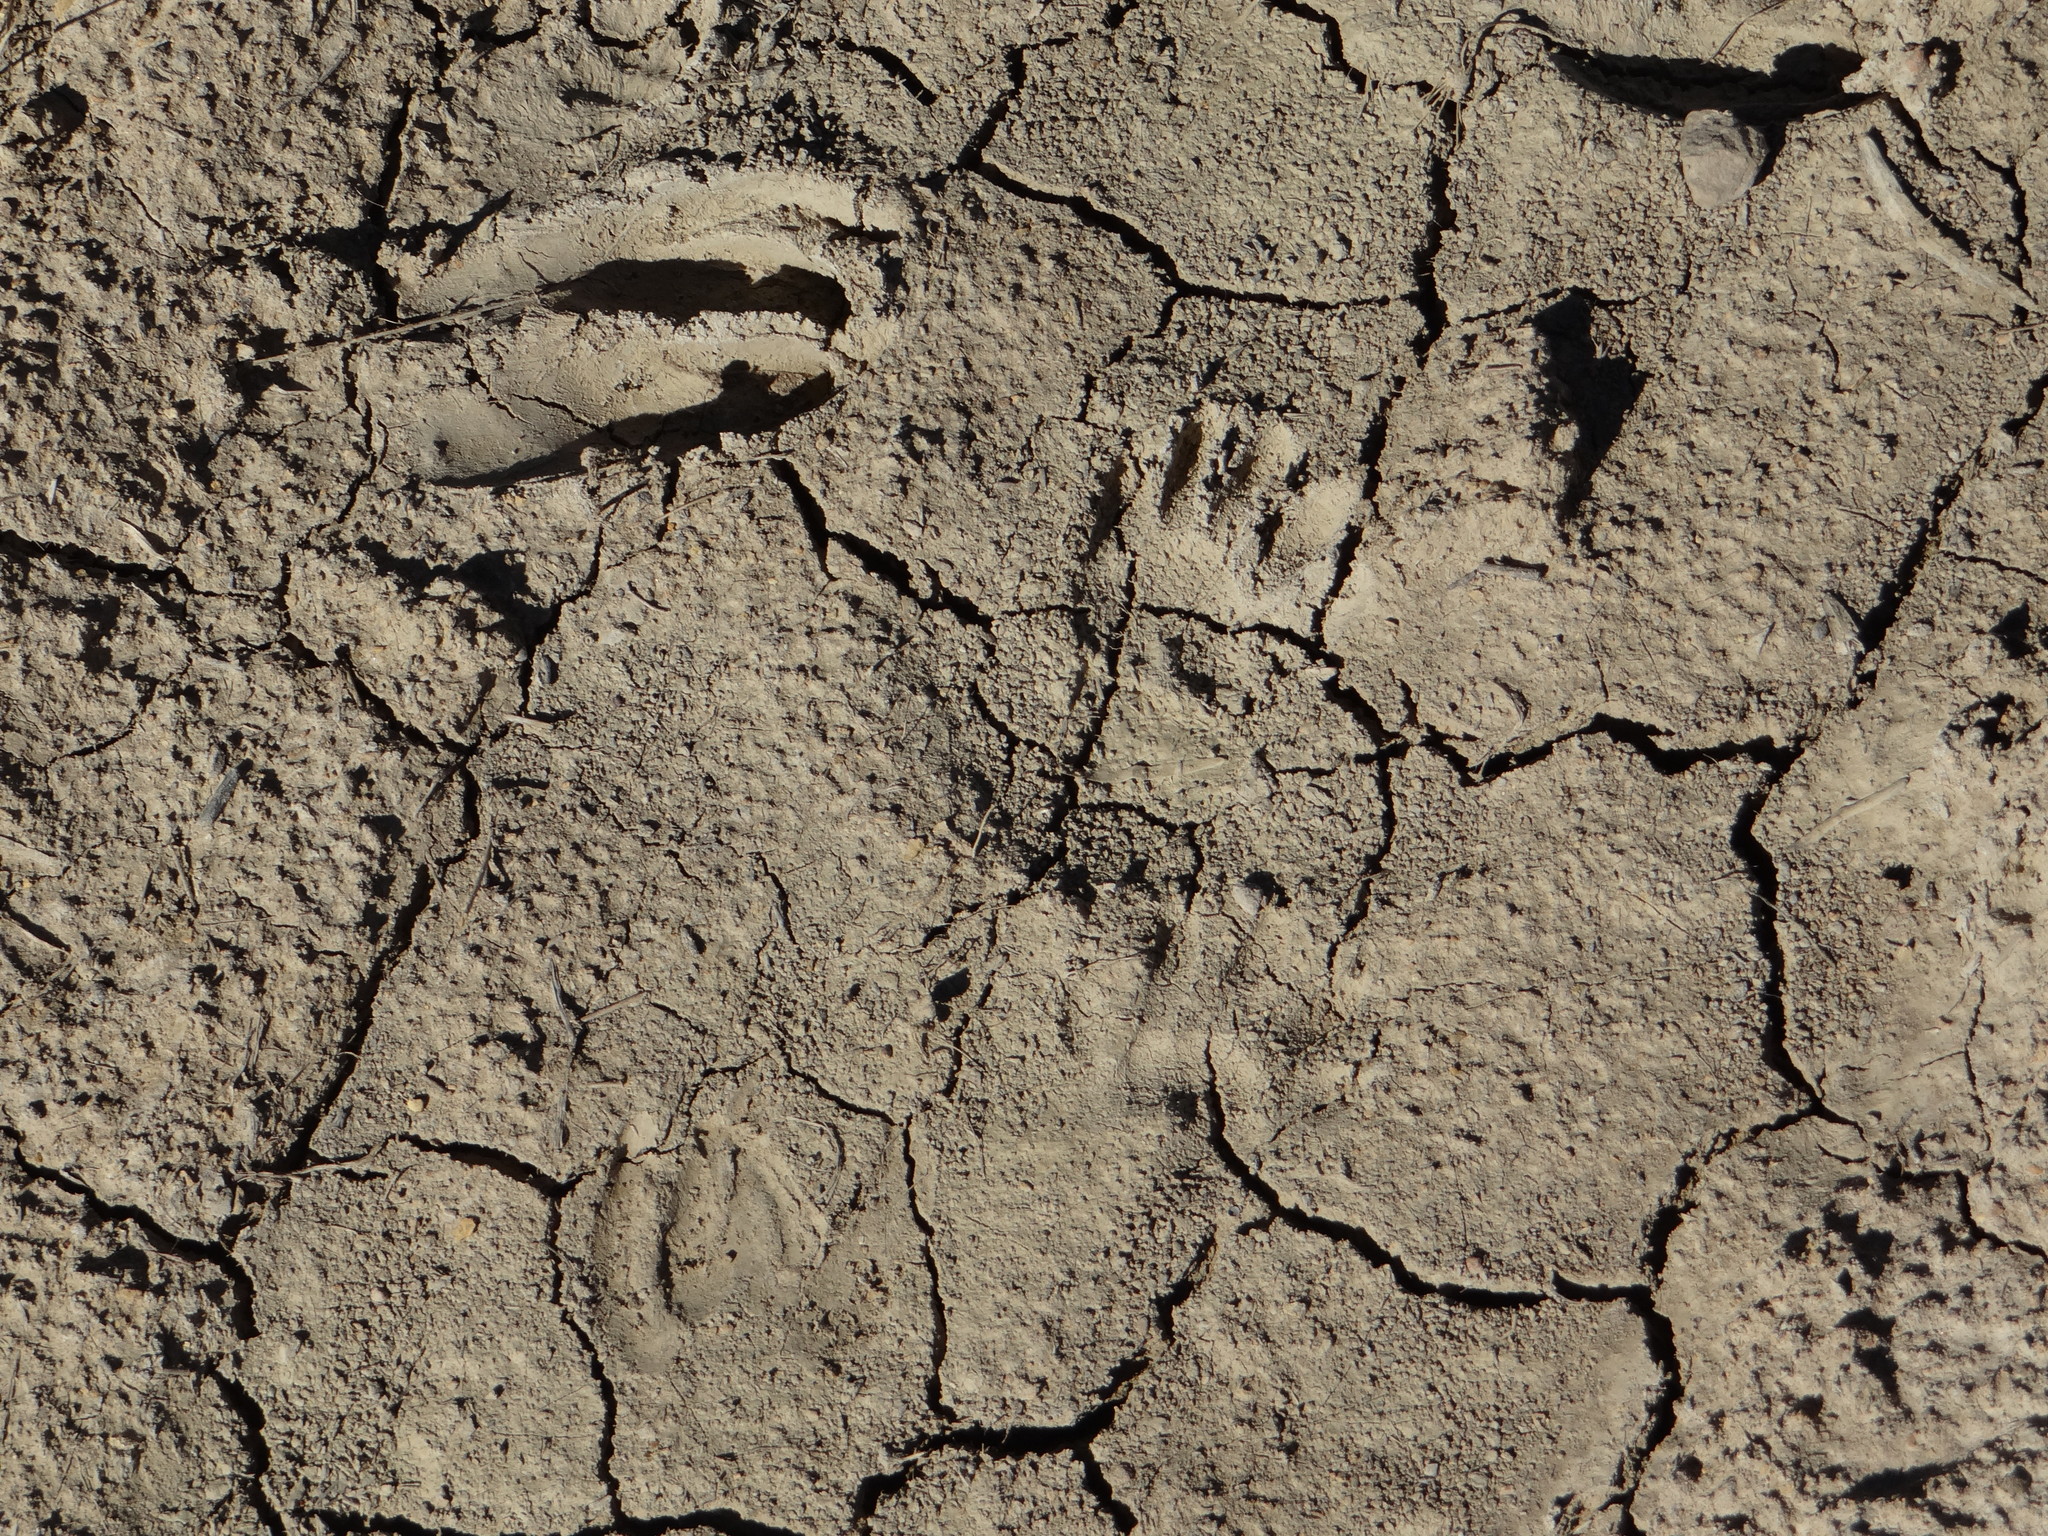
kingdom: Animalia
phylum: Chordata
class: Mammalia
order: Carnivora
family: Procyonidae
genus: Procyon
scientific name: Procyon lotor
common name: Raccoon
